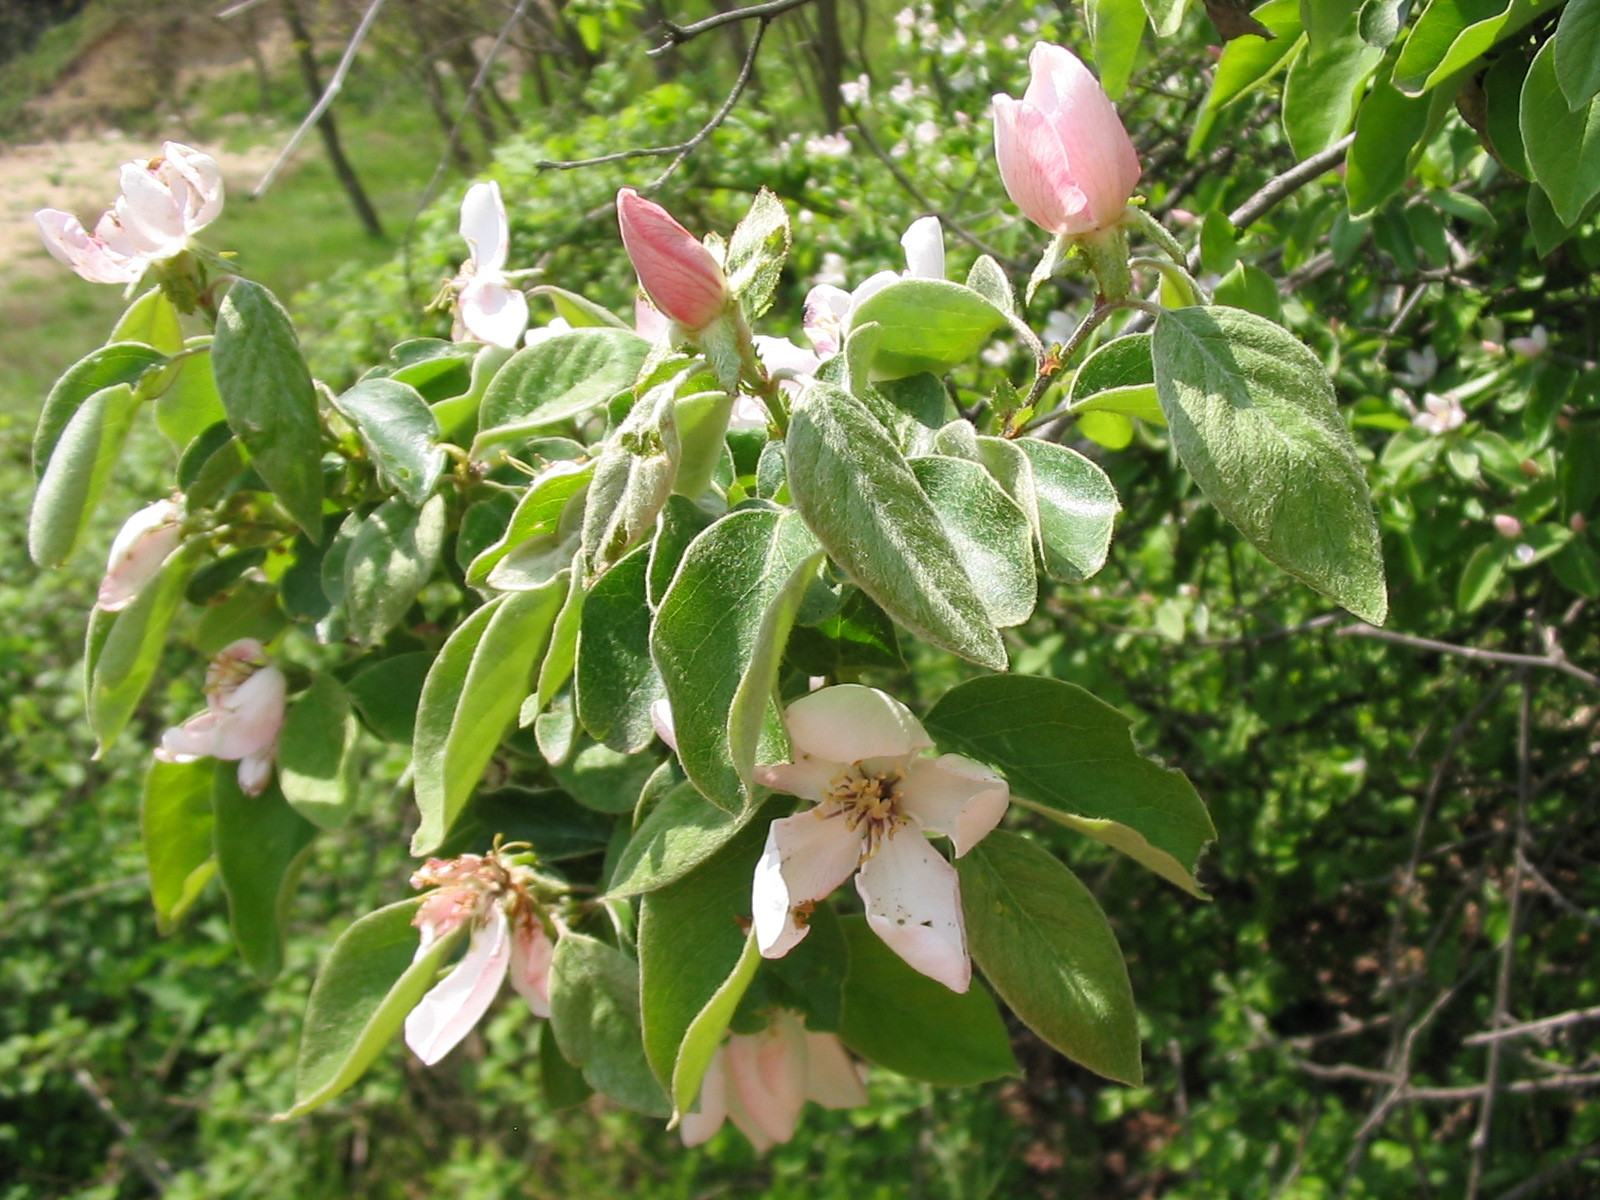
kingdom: Plantae
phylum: Tracheophyta
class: Magnoliopsida
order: Rosales
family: Rosaceae
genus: Cydonia
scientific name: Cydonia oblonga
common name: Quince
